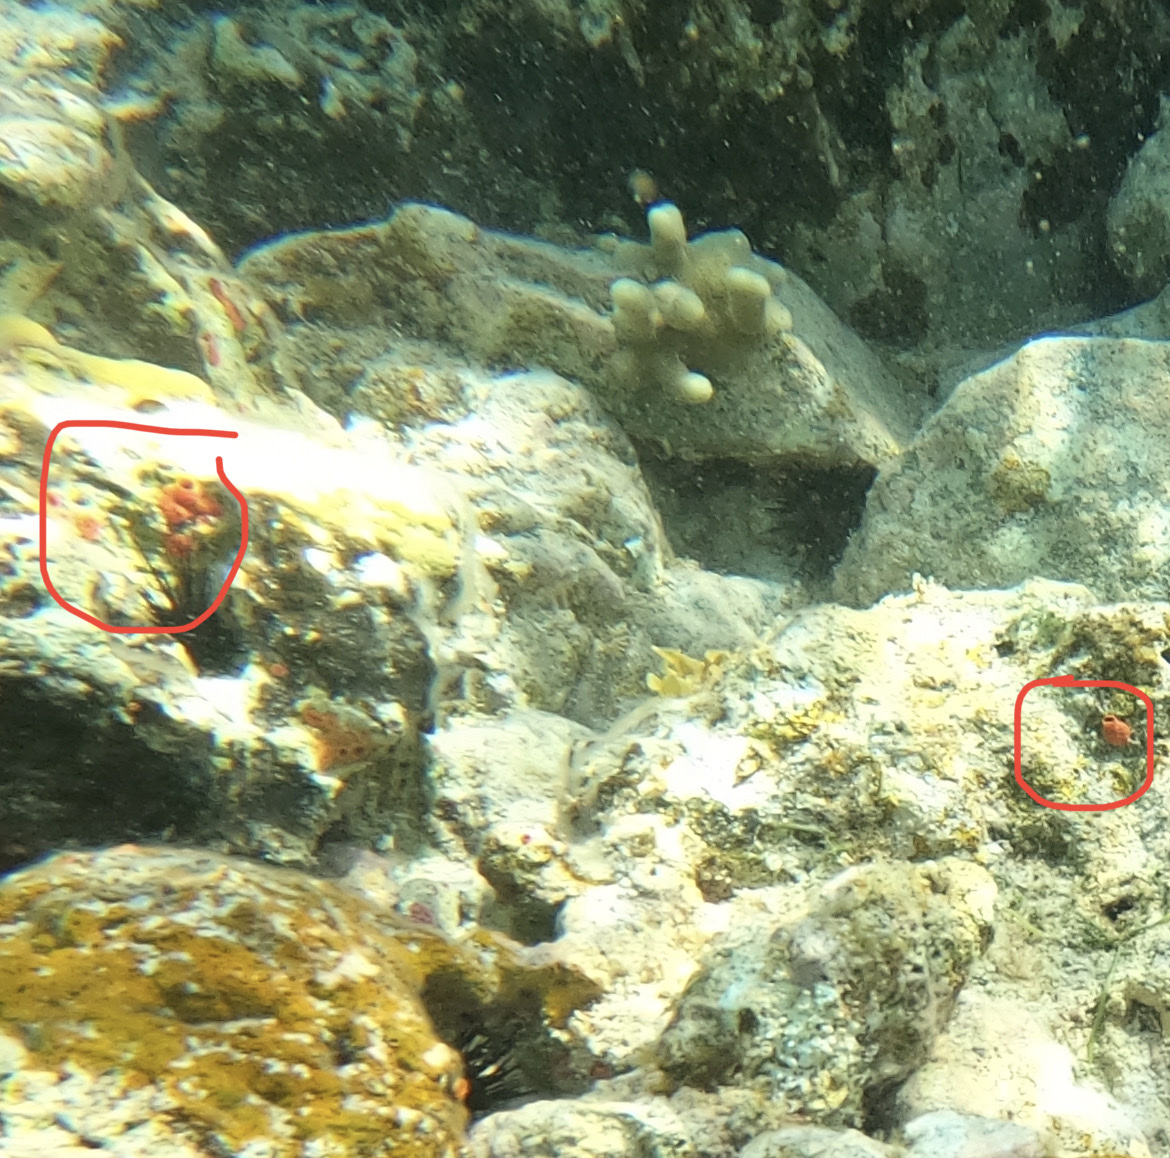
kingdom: Animalia
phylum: Porifera
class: Demospongiae
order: Clionaida
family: Clionaidae
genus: Cliothosa
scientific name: Cliothosa delitrix
